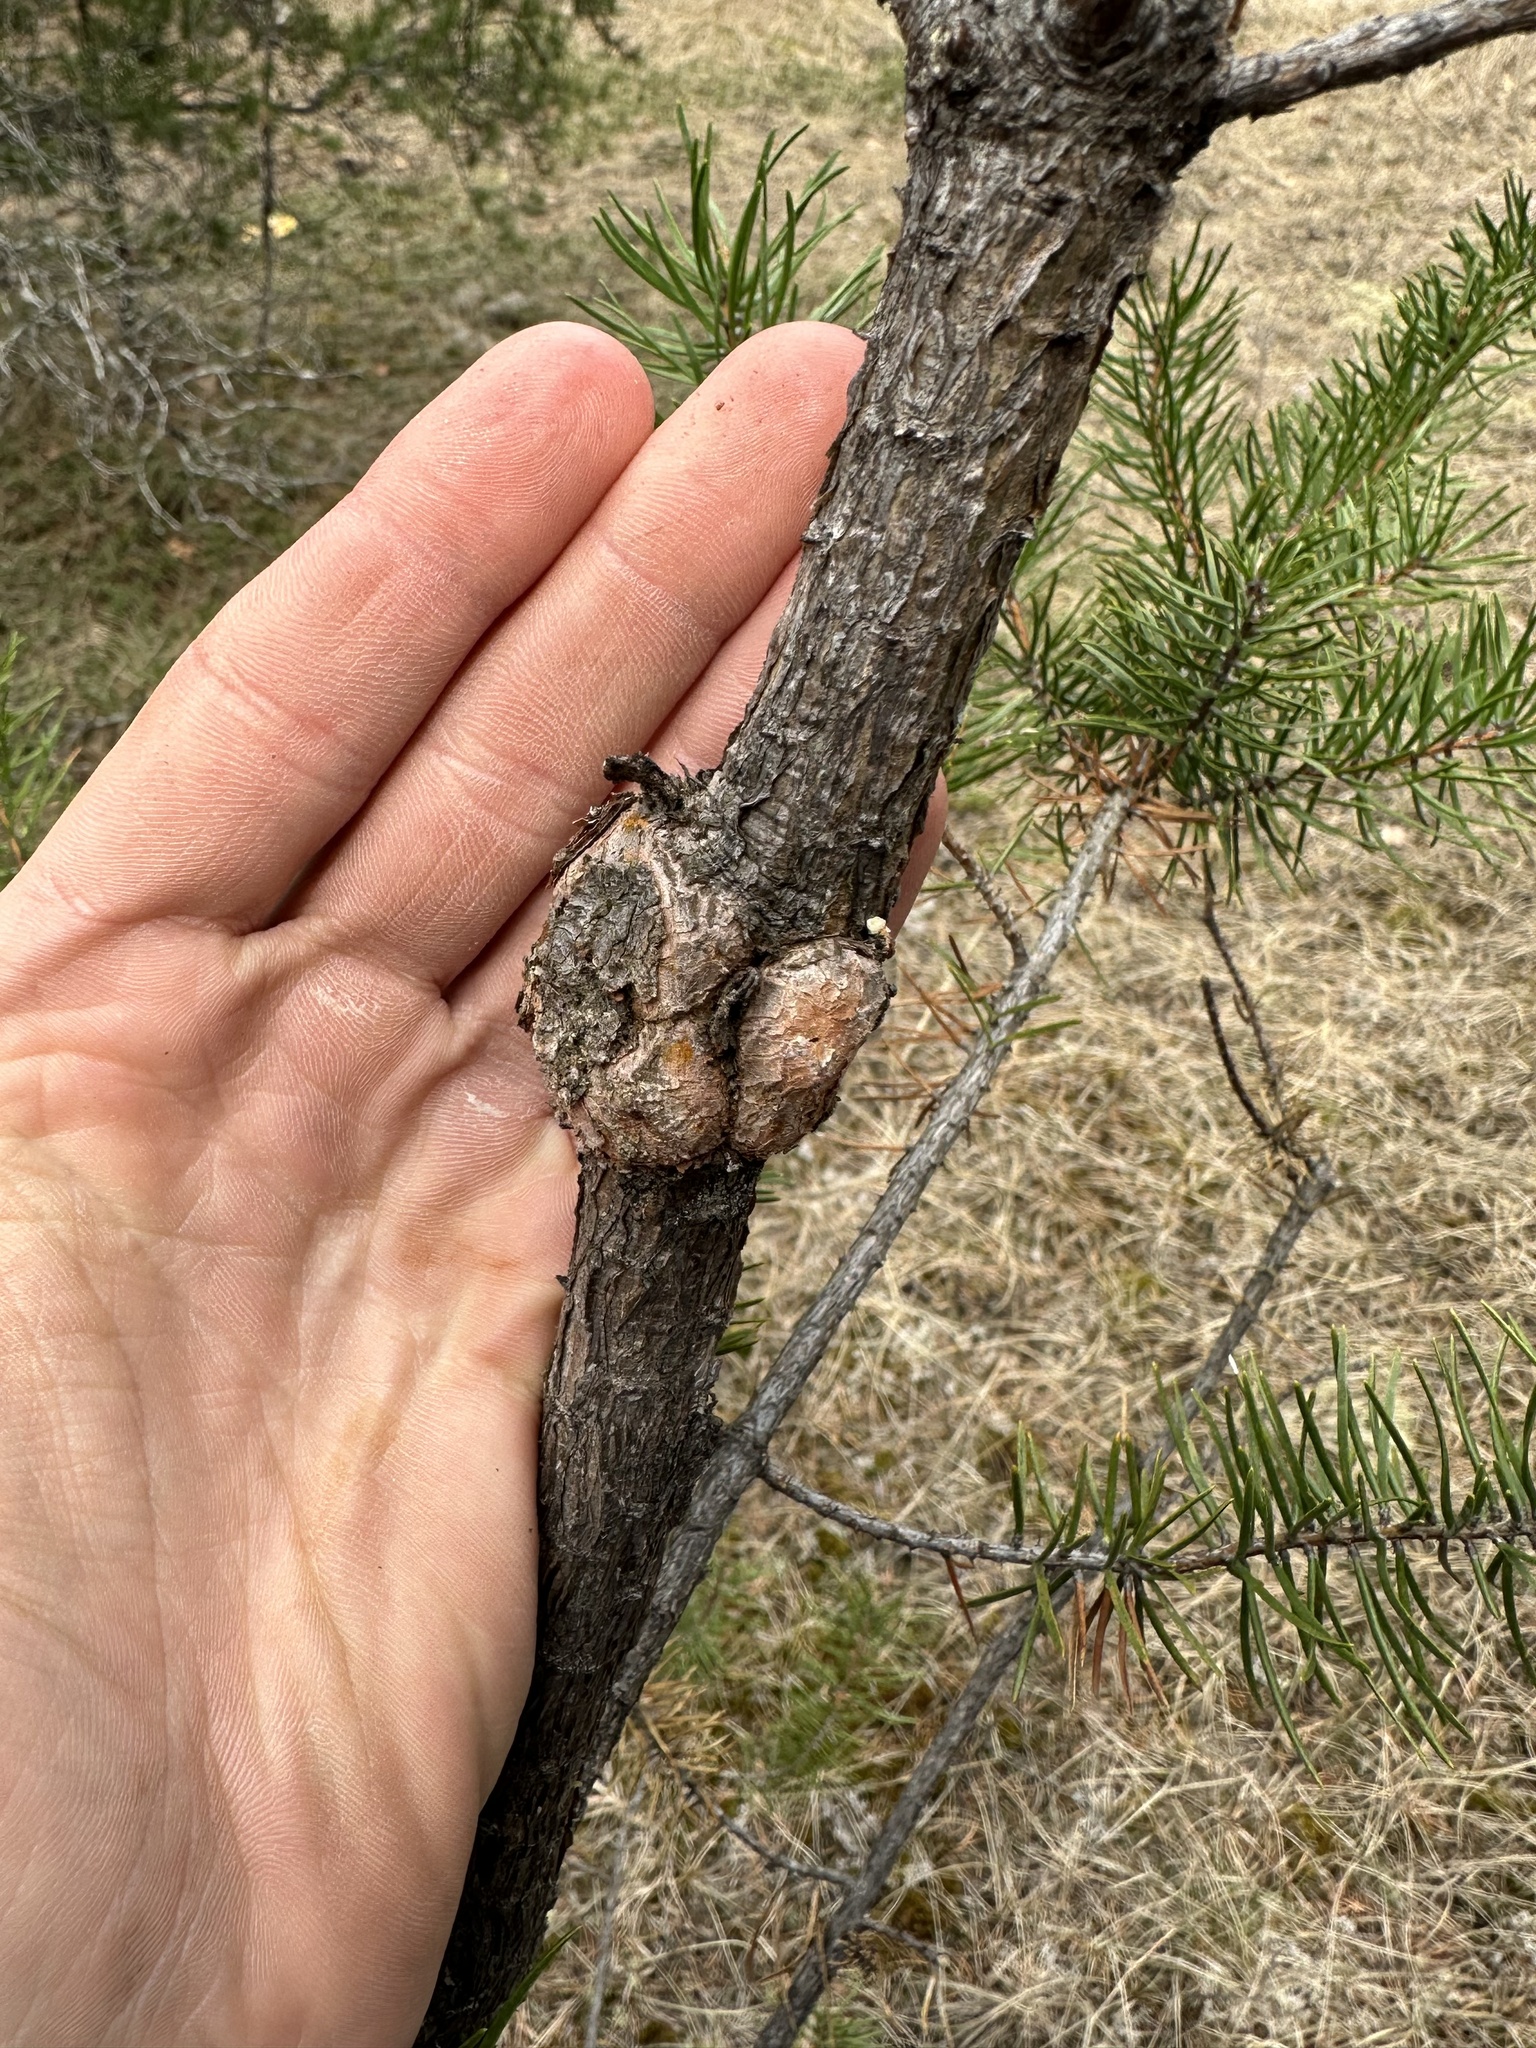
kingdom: Fungi
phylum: Basidiomycota
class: Pucciniomycetes
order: Pucciniales
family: Cronartiaceae
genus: Cronartium
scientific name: Cronartium quercuum
